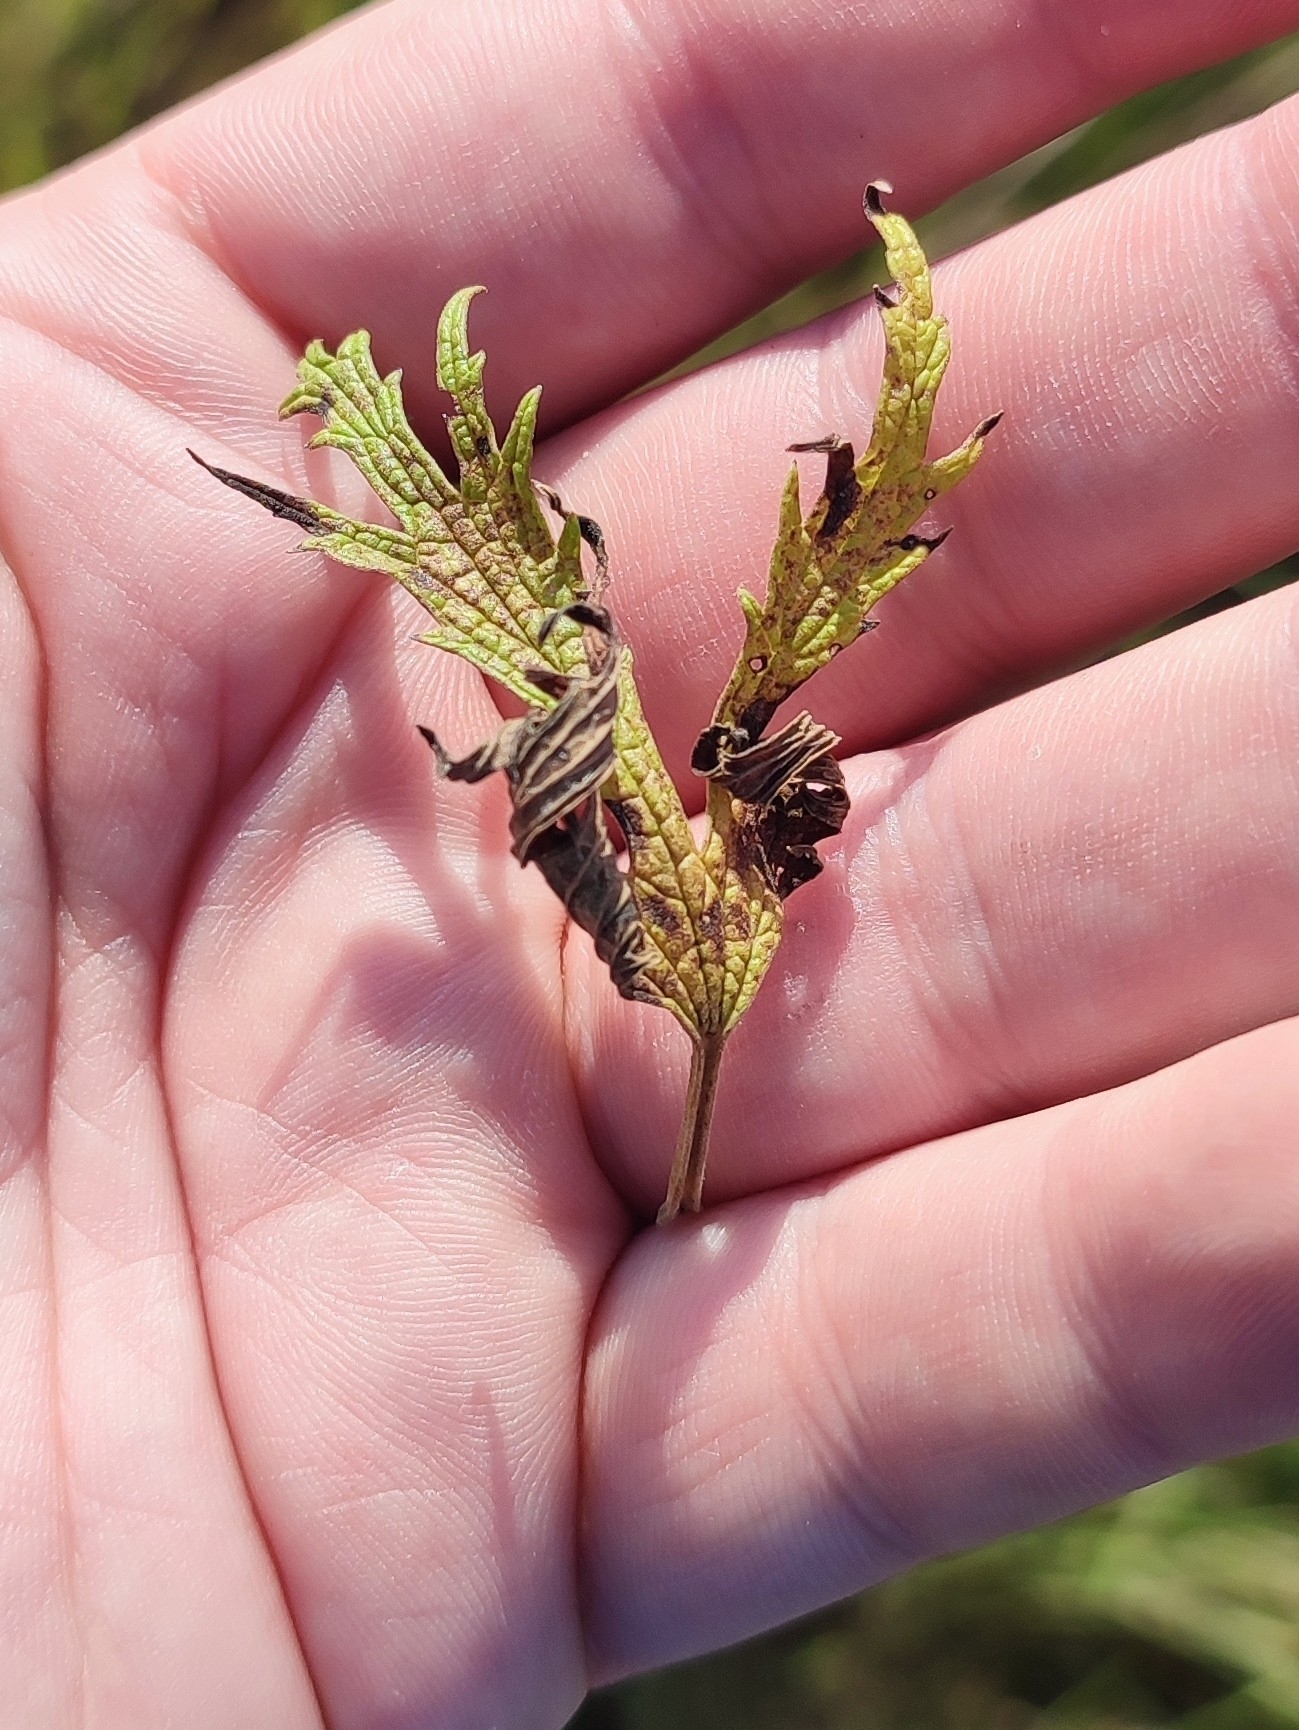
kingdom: Plantae
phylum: Tracheophyta
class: Magnoliopsida
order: Lamiales
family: Lamiaceae
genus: Leonurus
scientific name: Leonurus glaucescens
